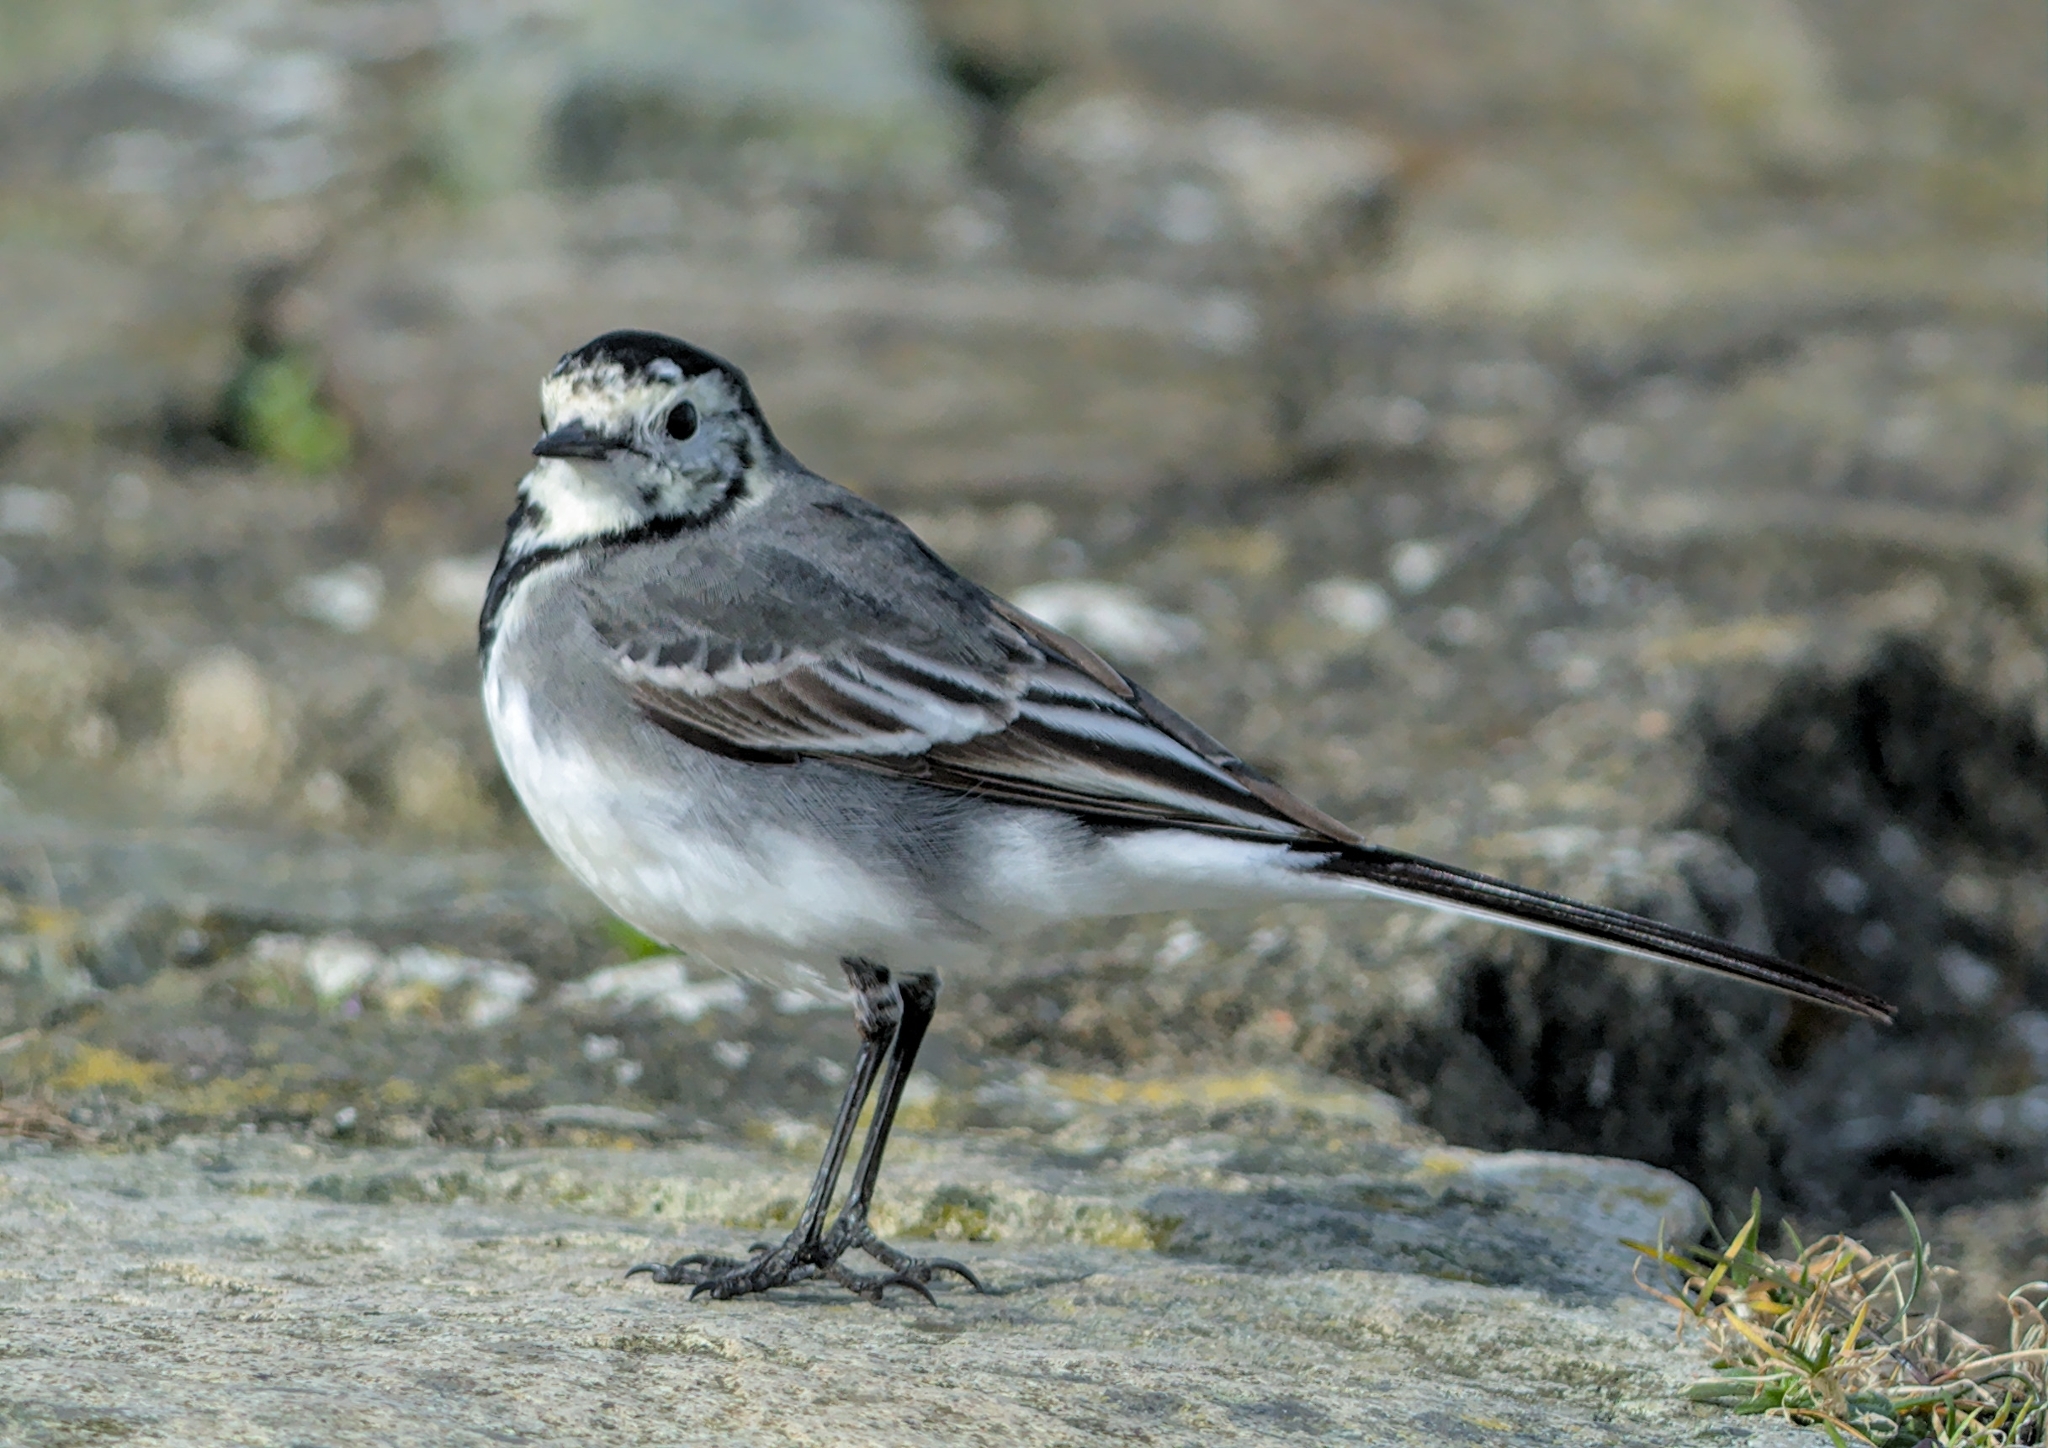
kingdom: Animalia
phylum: Chordata
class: Aves
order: Passeriformes
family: Motacillidae
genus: Motacilla
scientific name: Motacilla alba
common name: White wagtail
